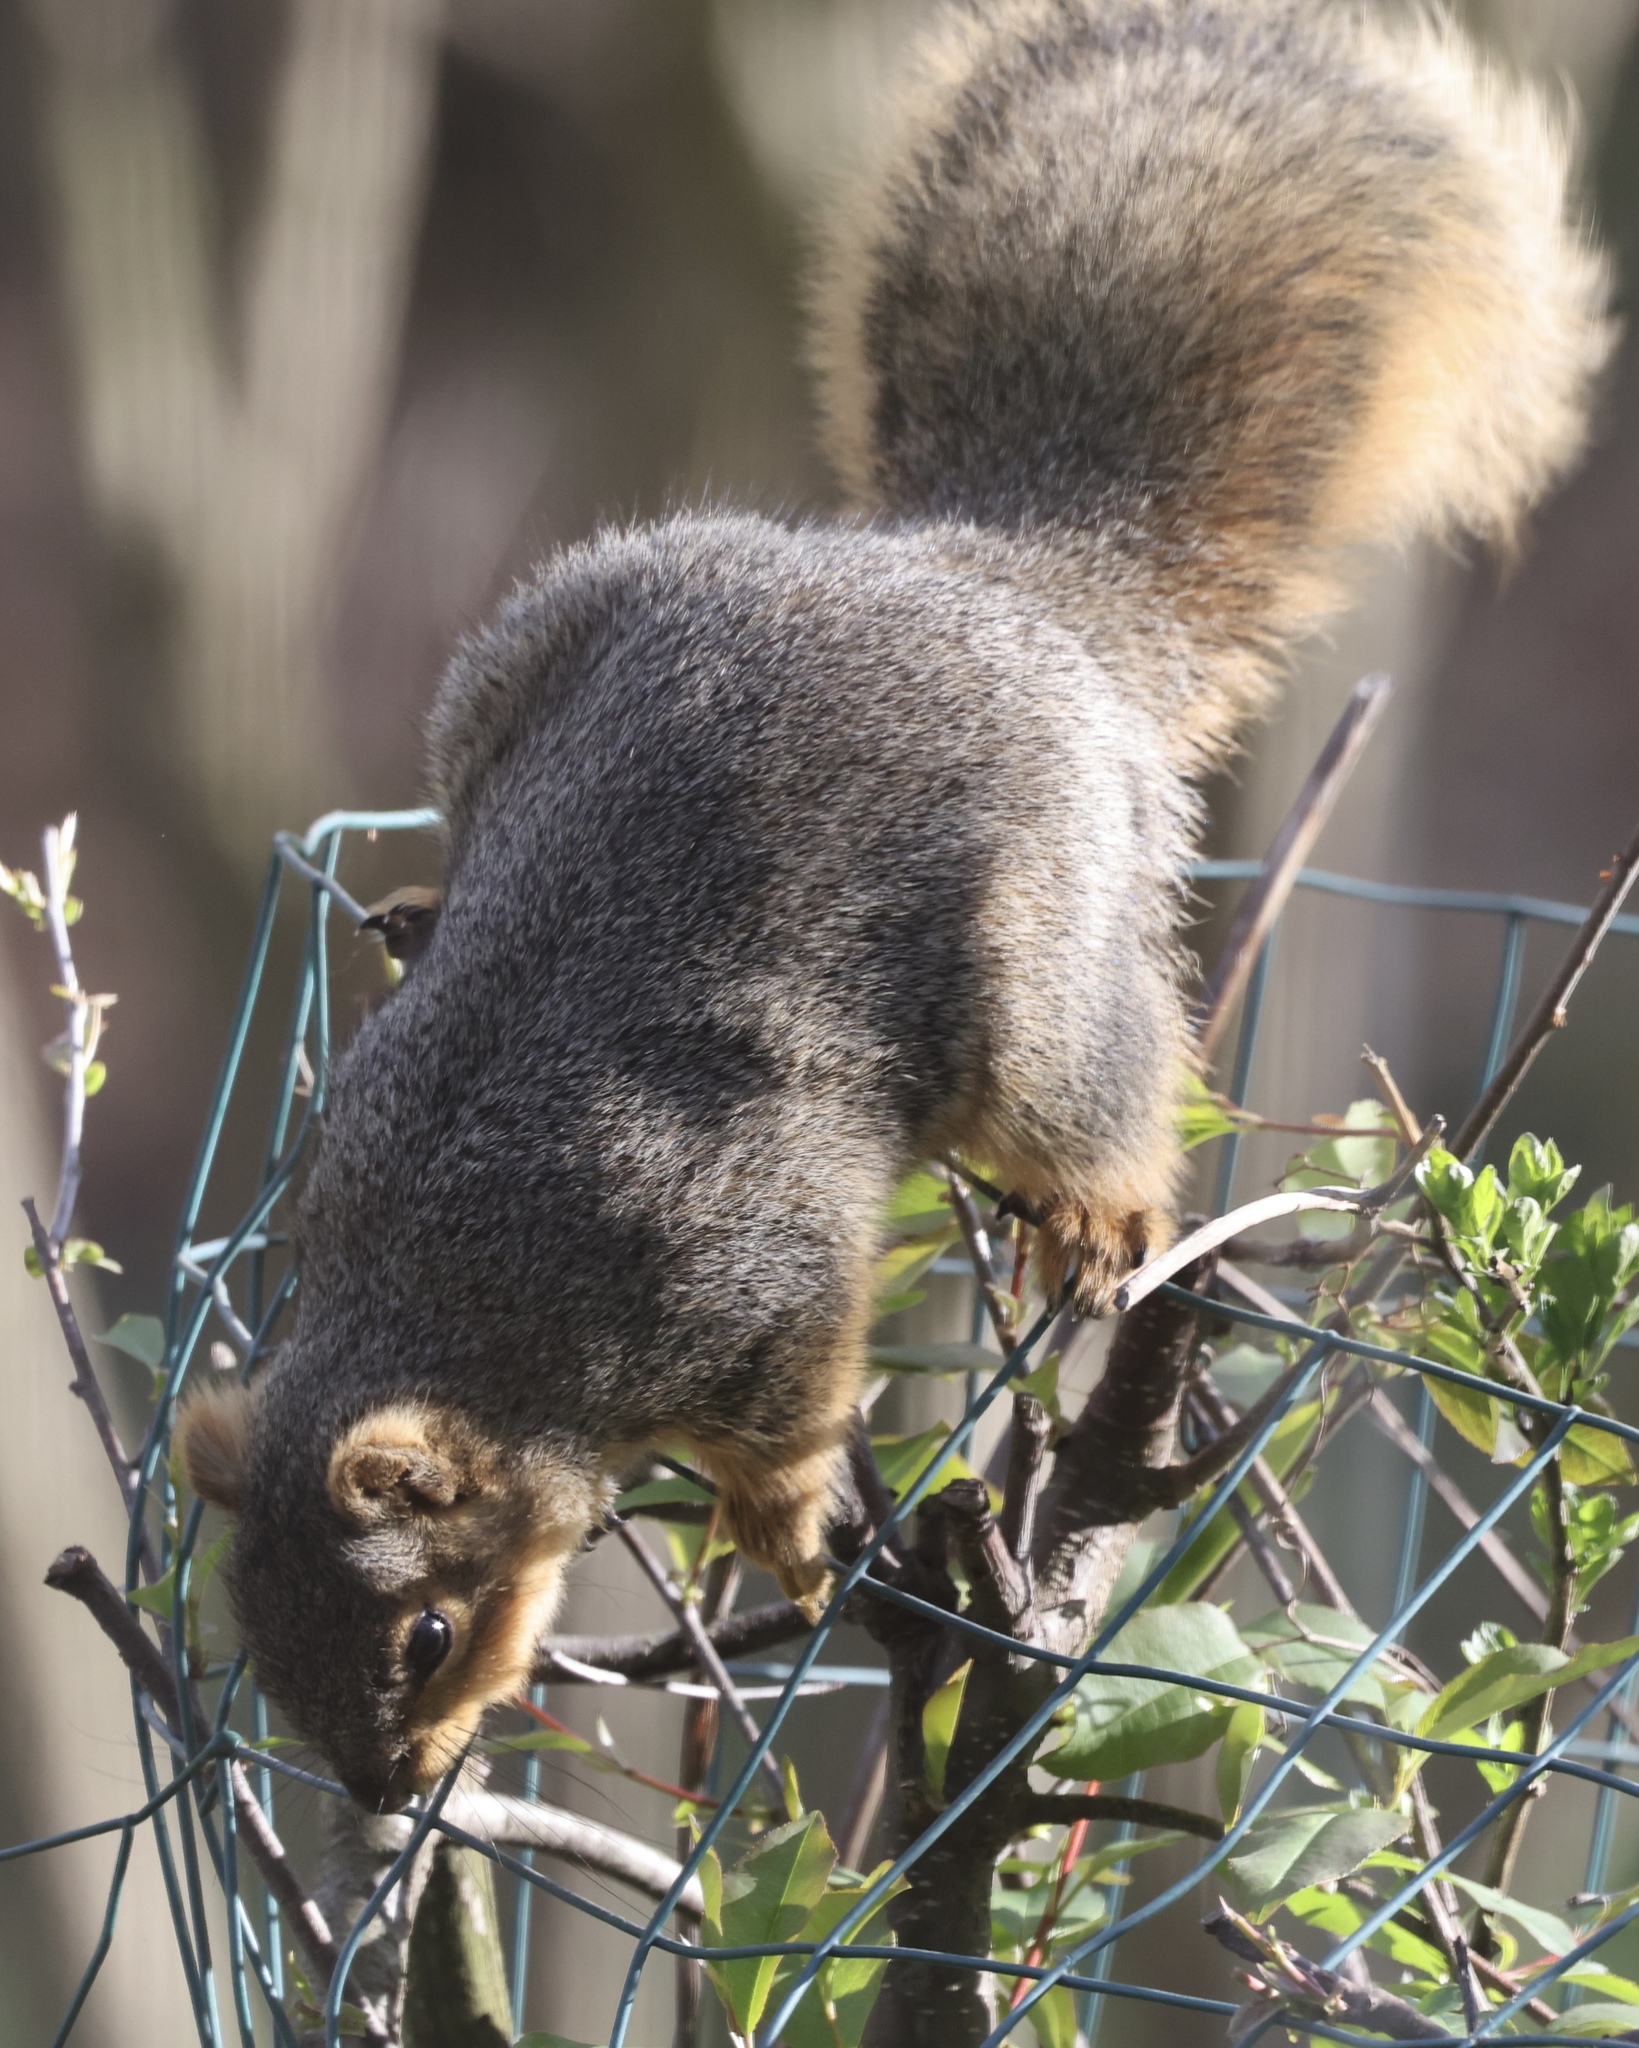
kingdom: Animalia
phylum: Chordata
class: Mammalia
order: Rodentia
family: Sciuridae
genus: Sciurus
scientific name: Sciurus niger
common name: Fox squirrel
